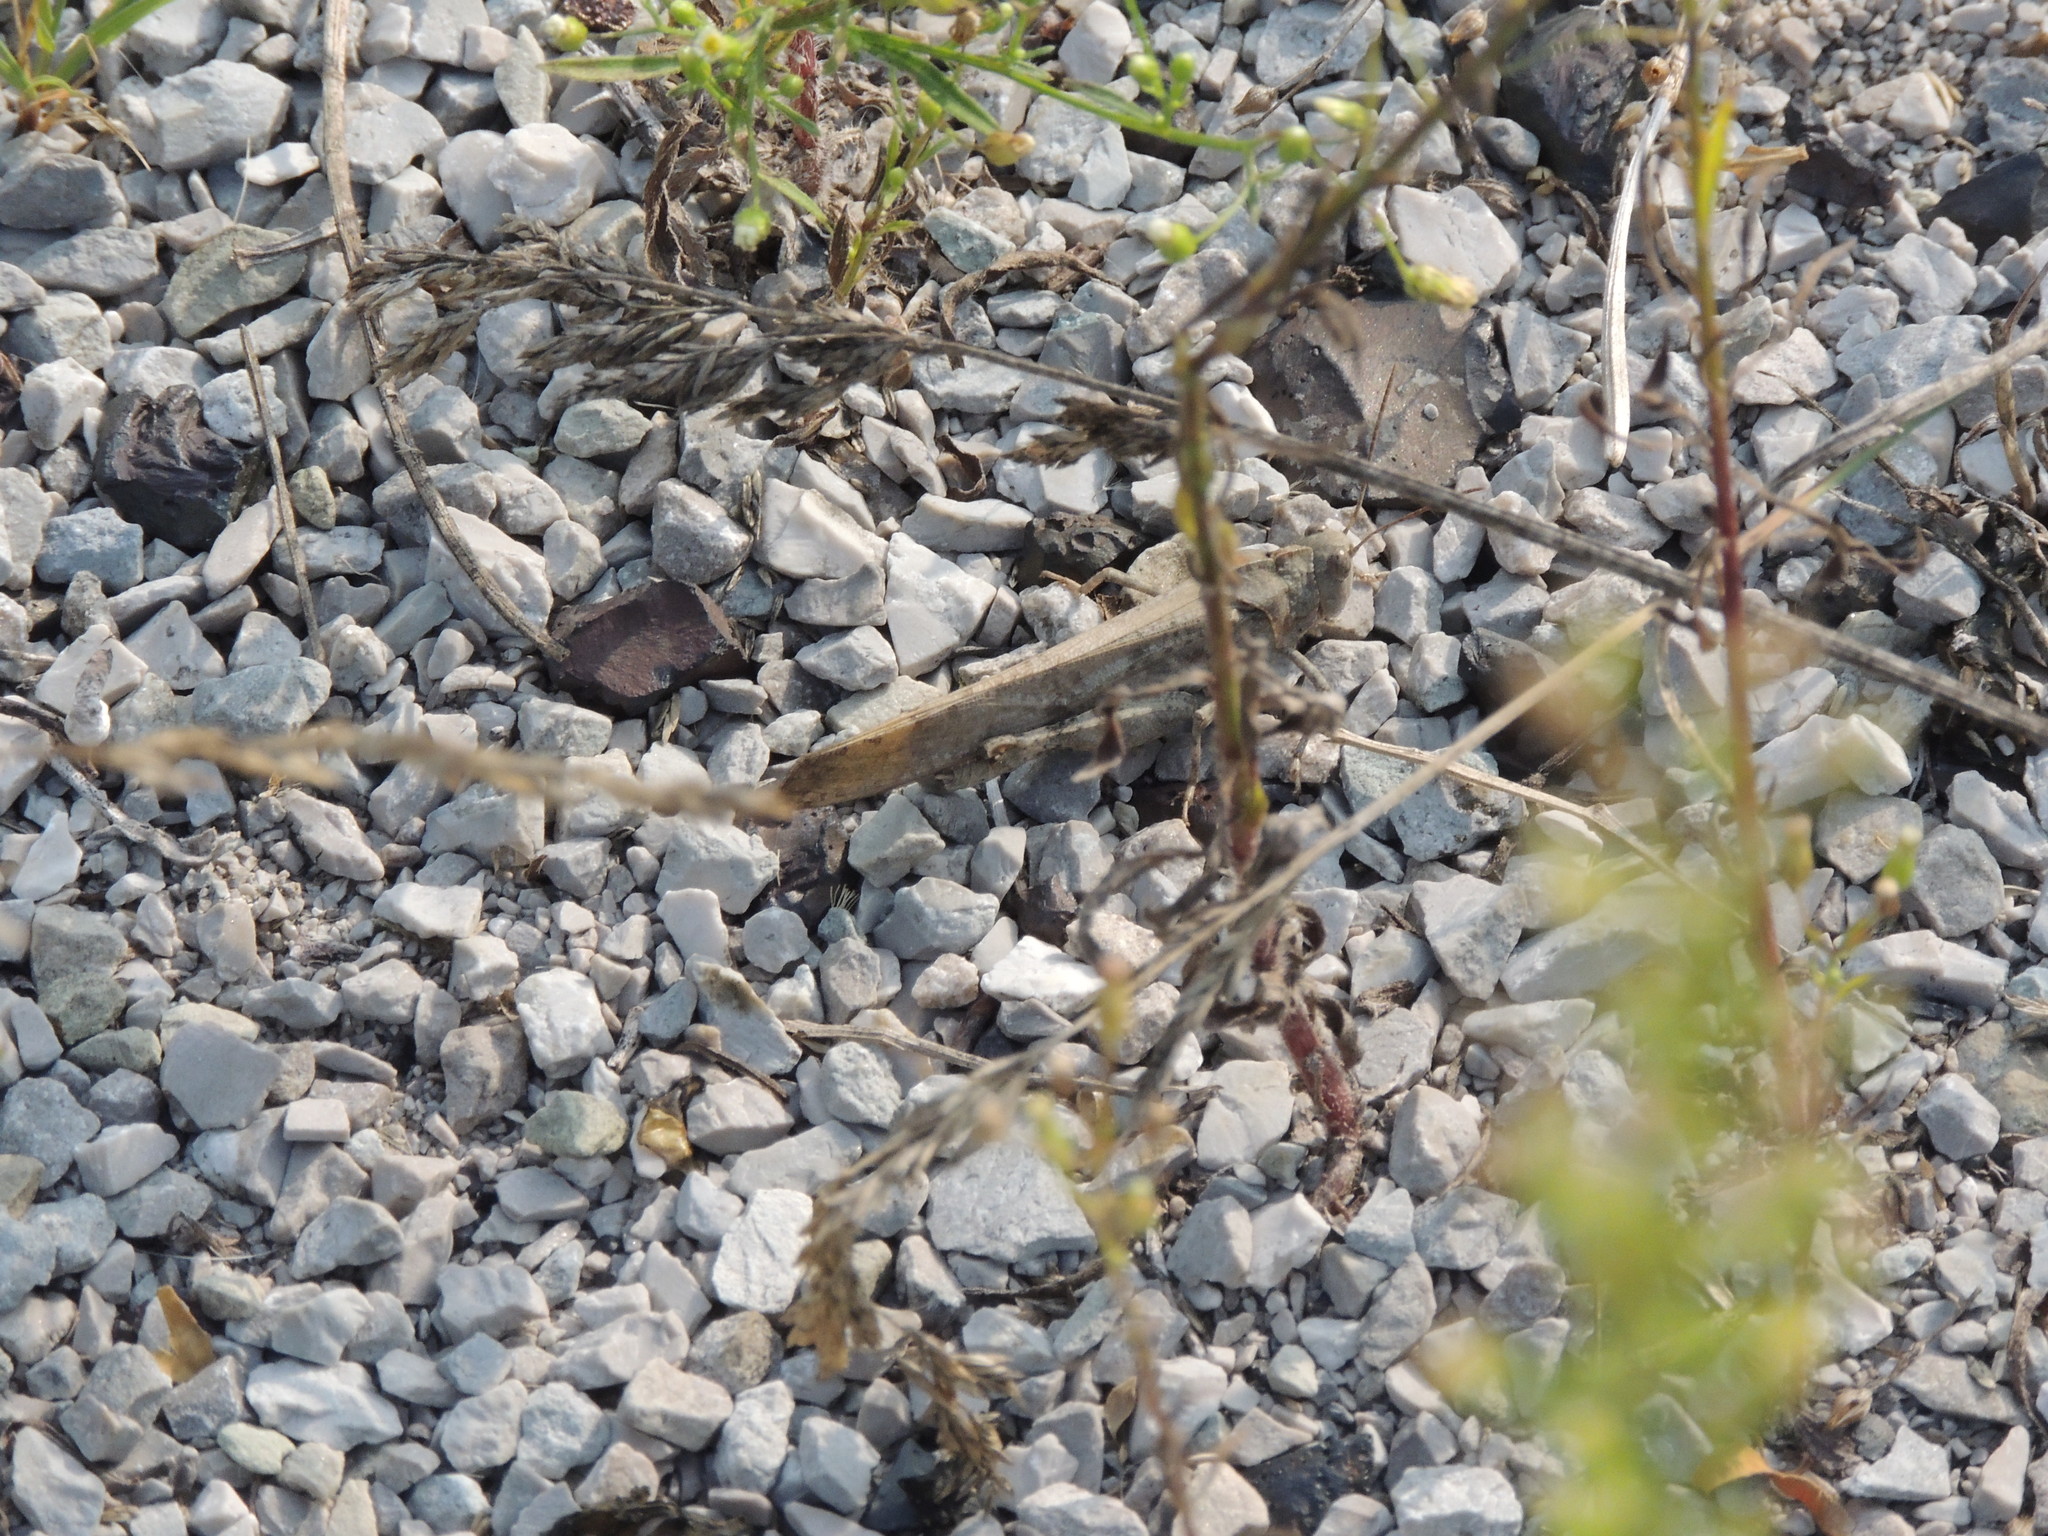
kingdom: Animalia
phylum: Arthropoda
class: Insecta
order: Orthoptera
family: Acrididae
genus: Dissosteira
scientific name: Dissosteira carolina
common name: Carolina grasshopper
